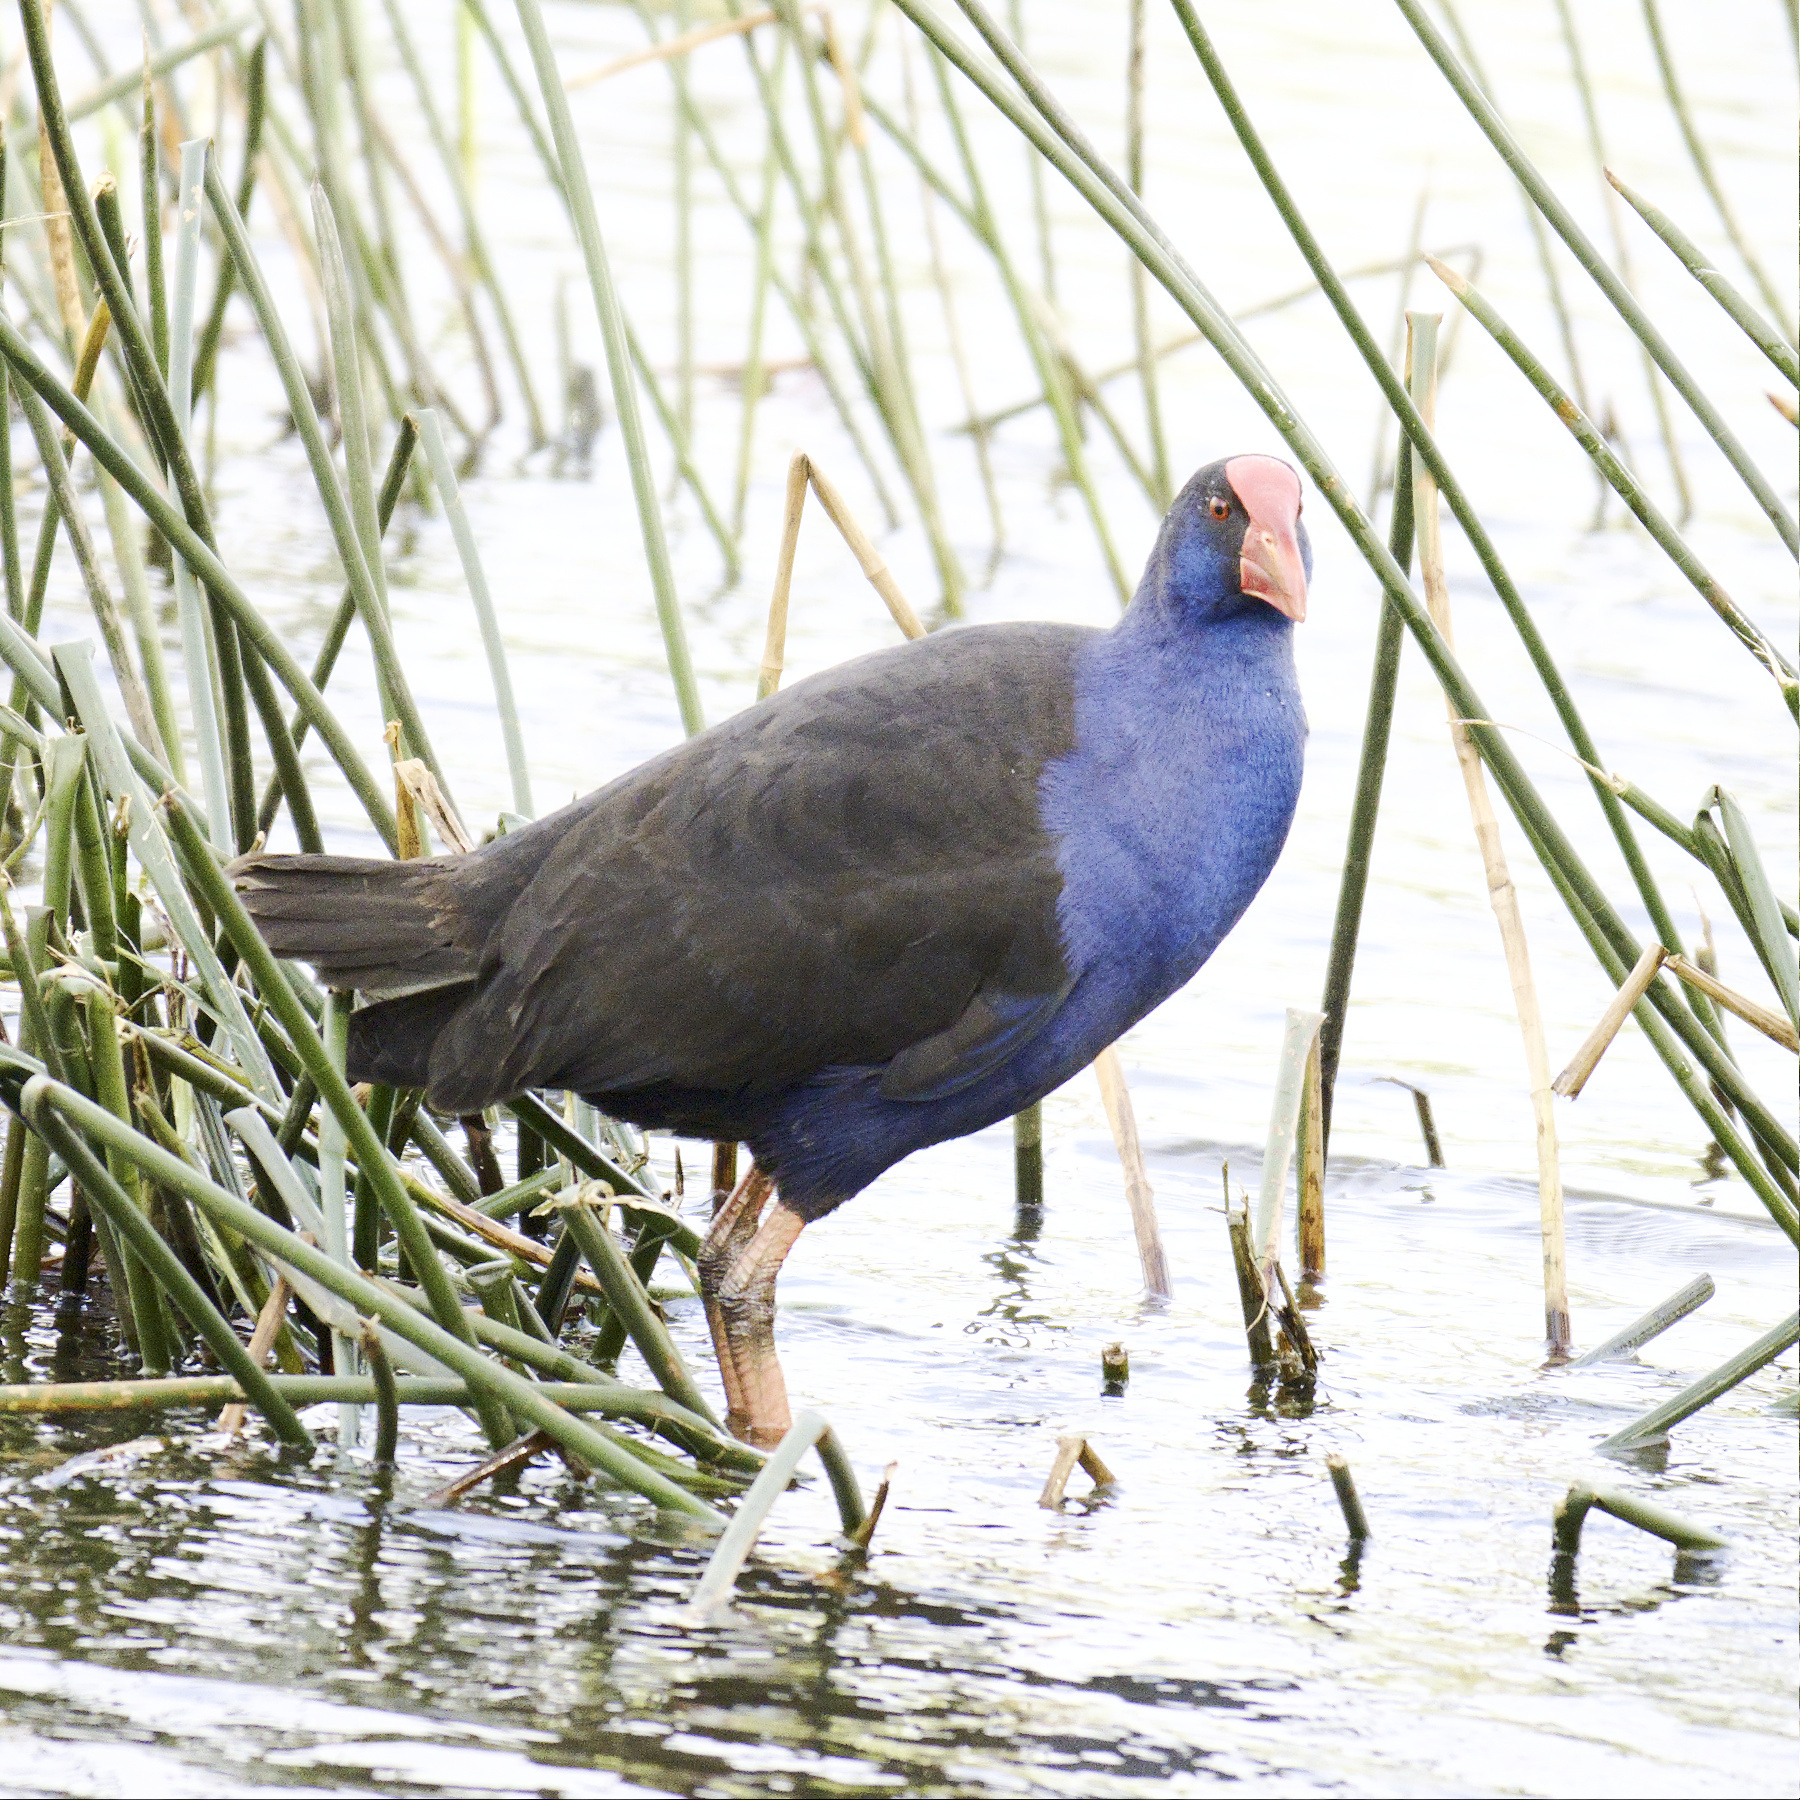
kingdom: Animalia
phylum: Chordata
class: Aves
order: Gruiformes
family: Rallidae
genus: Porphyrio
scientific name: Porphyrio melanotus
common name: Australasian swamphen
